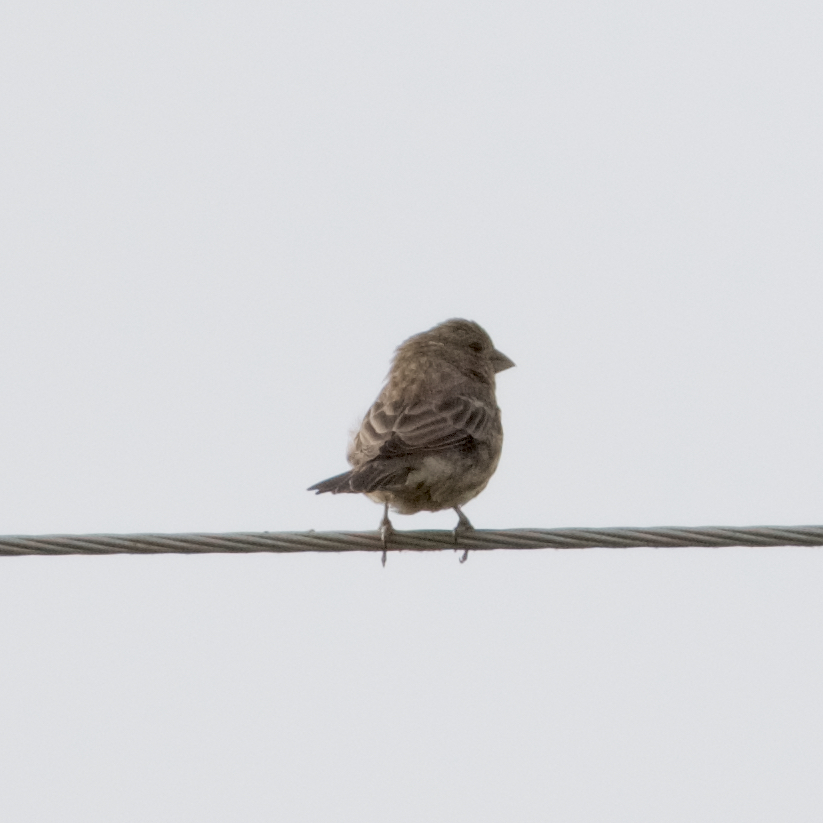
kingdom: Animalia
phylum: Chordata
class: Aves
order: Passeriformes
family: Fringillidae
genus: Haemorhous
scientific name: Haemorhous mexicanus
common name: House finch
